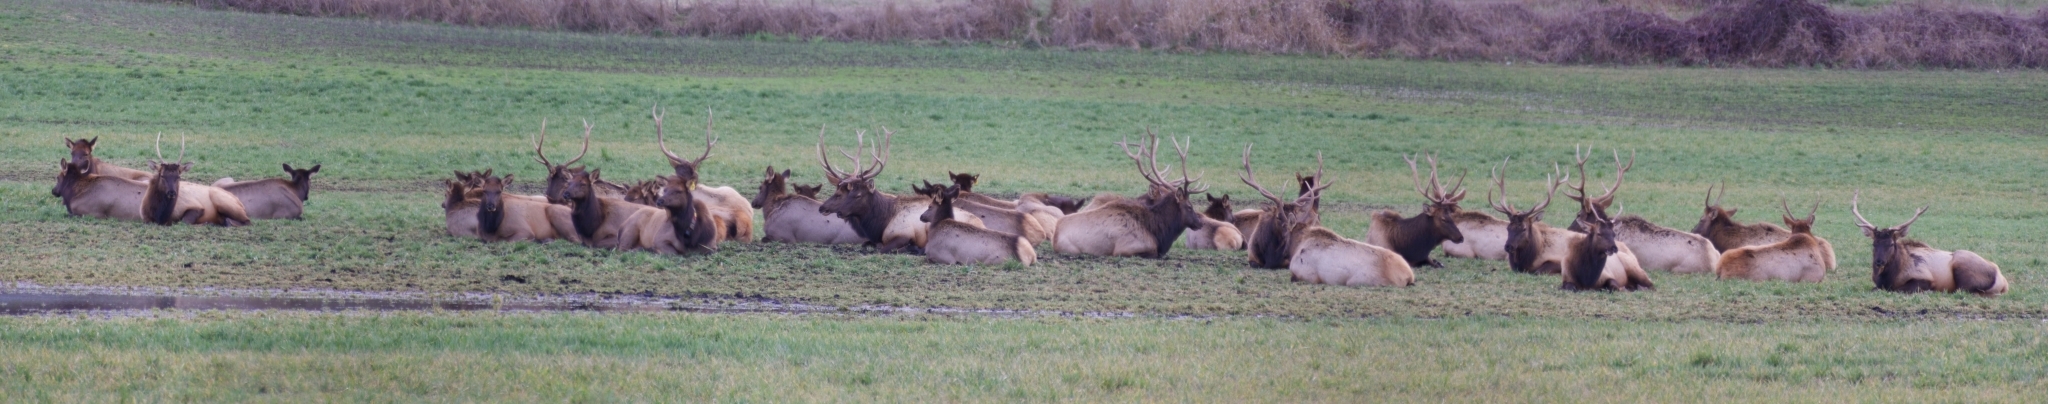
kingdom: Animalia
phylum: Chordata
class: Mammalia
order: Artiodactyla
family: Cervidae
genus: Cervus
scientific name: Cervus elaphus
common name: Red deer
